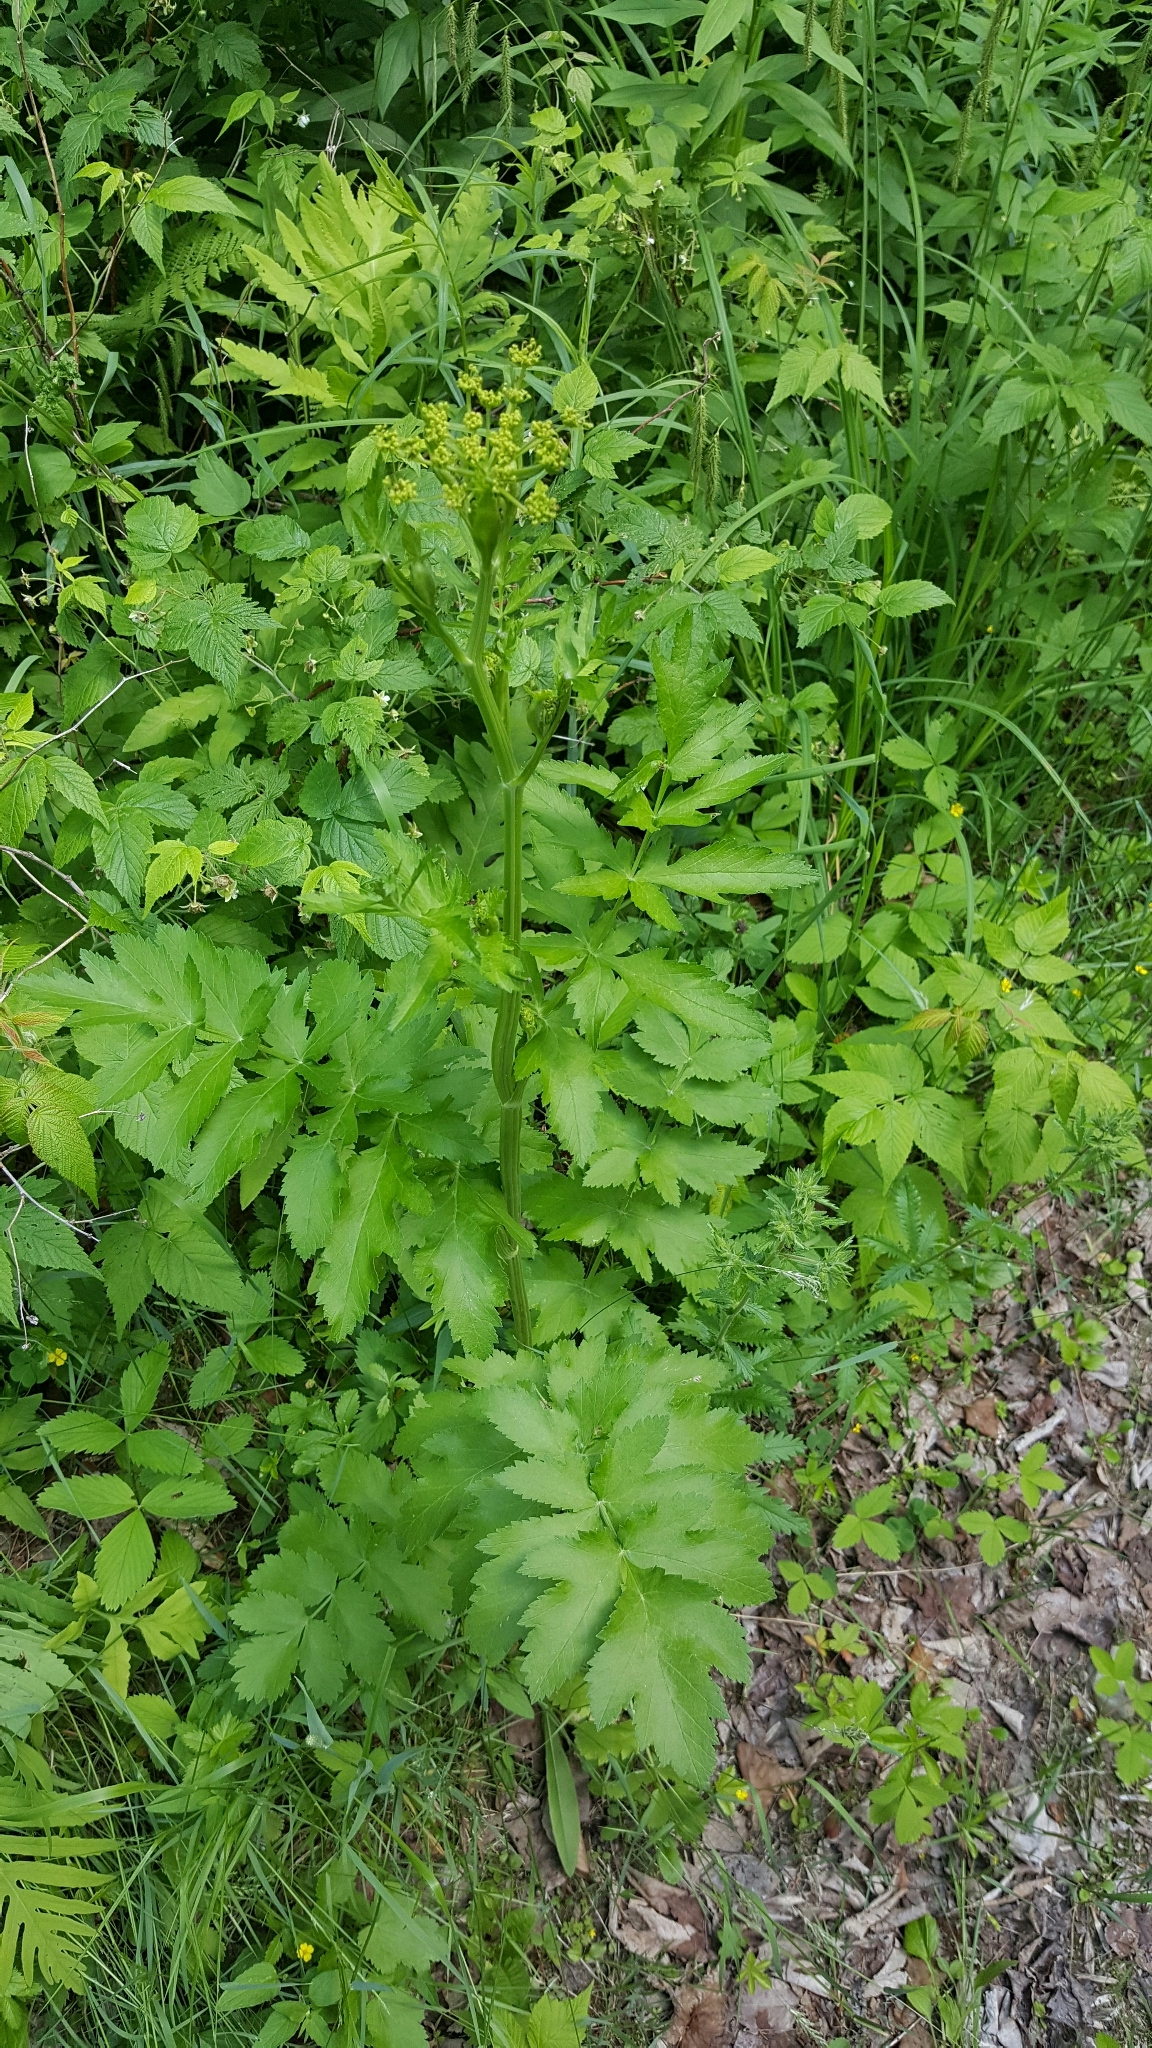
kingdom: Plantae
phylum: Tracheophyta
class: Magnoliopsida
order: Apiales
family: Apiaceae
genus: Pastinaca
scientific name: Pastinaca sativa
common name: Wild parsnip
